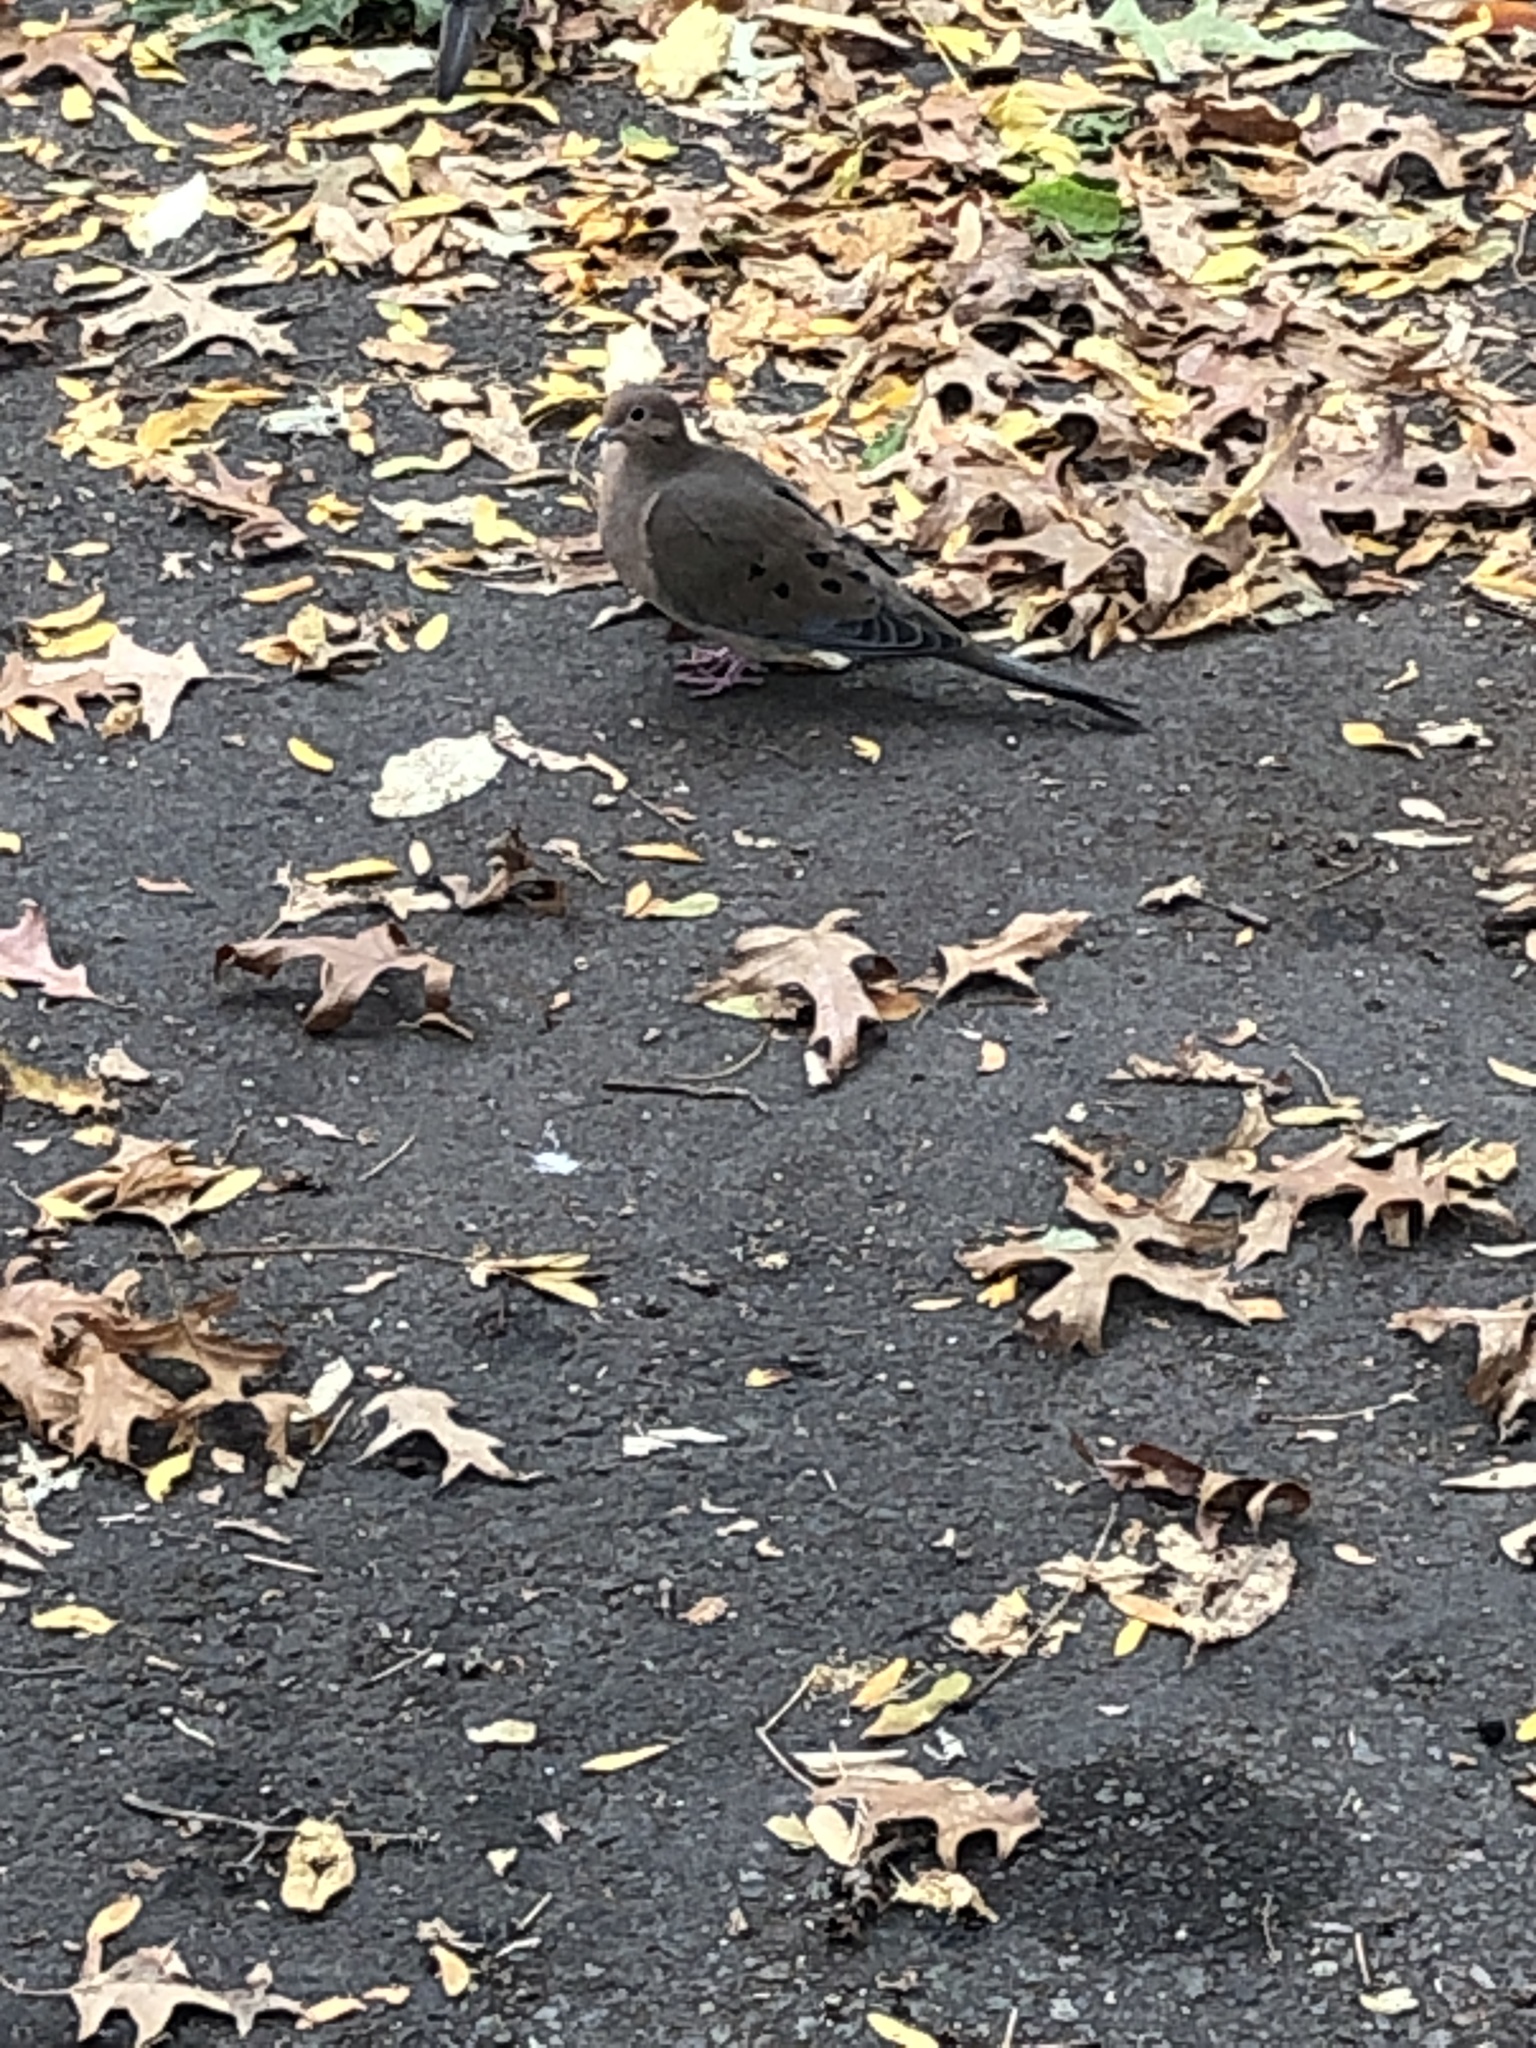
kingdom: Animalia
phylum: Chordata
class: Aves
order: Columbiformes
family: Columbidae
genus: Zenaida
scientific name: Zenaida macroura
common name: Mourning dove
